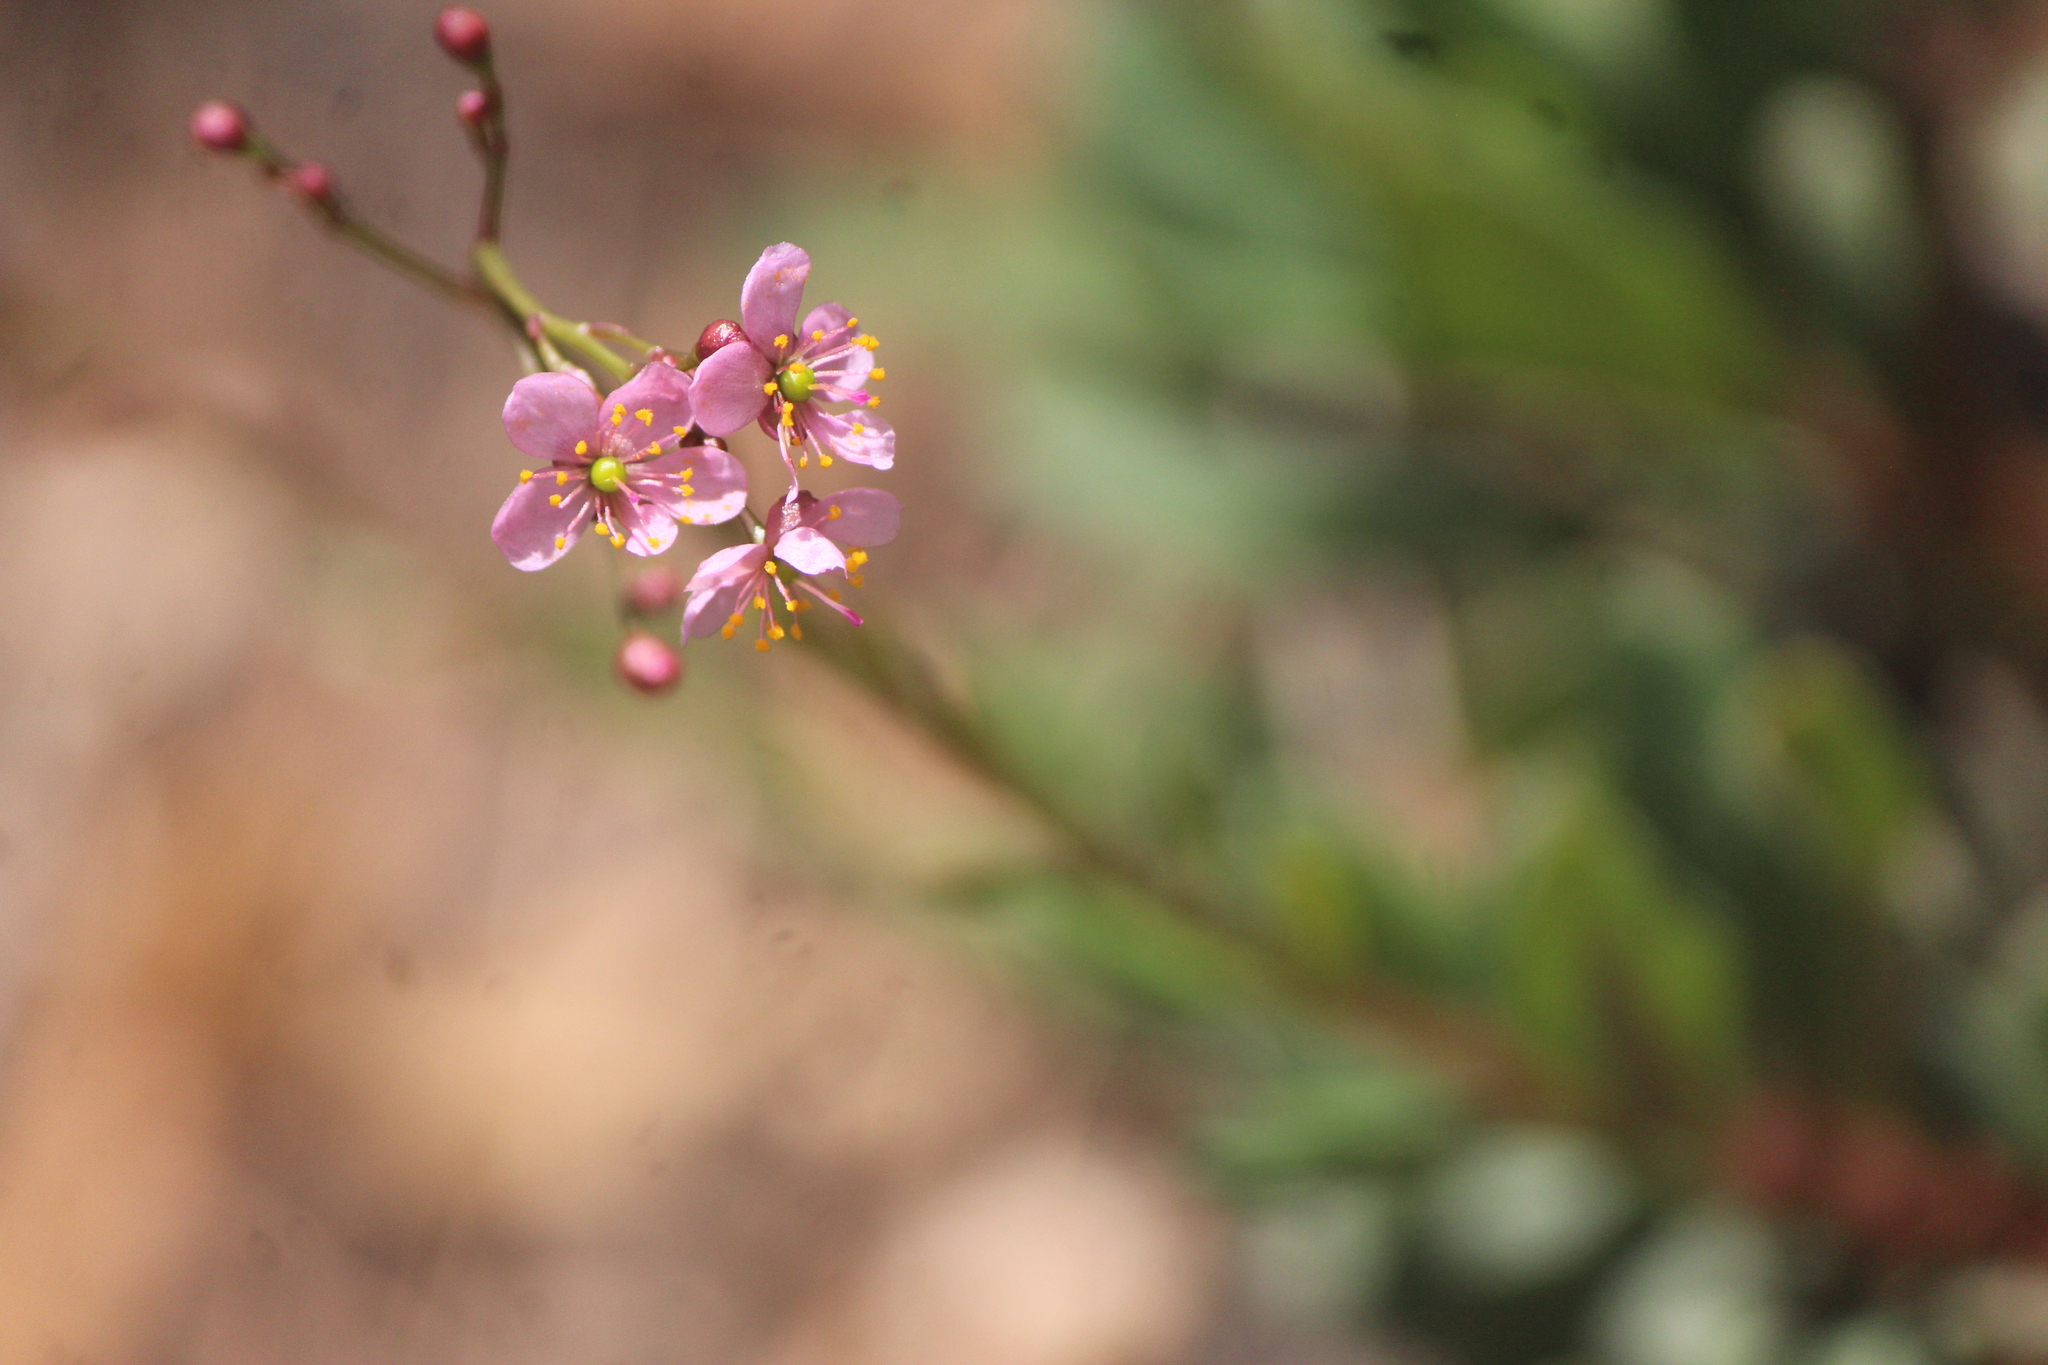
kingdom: Plantae
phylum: Tracheophyta
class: Magnoliopsida
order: Caryophyllales
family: Talinaceae
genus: Talinum
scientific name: Talinum paniculatum
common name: Jewels of opar
